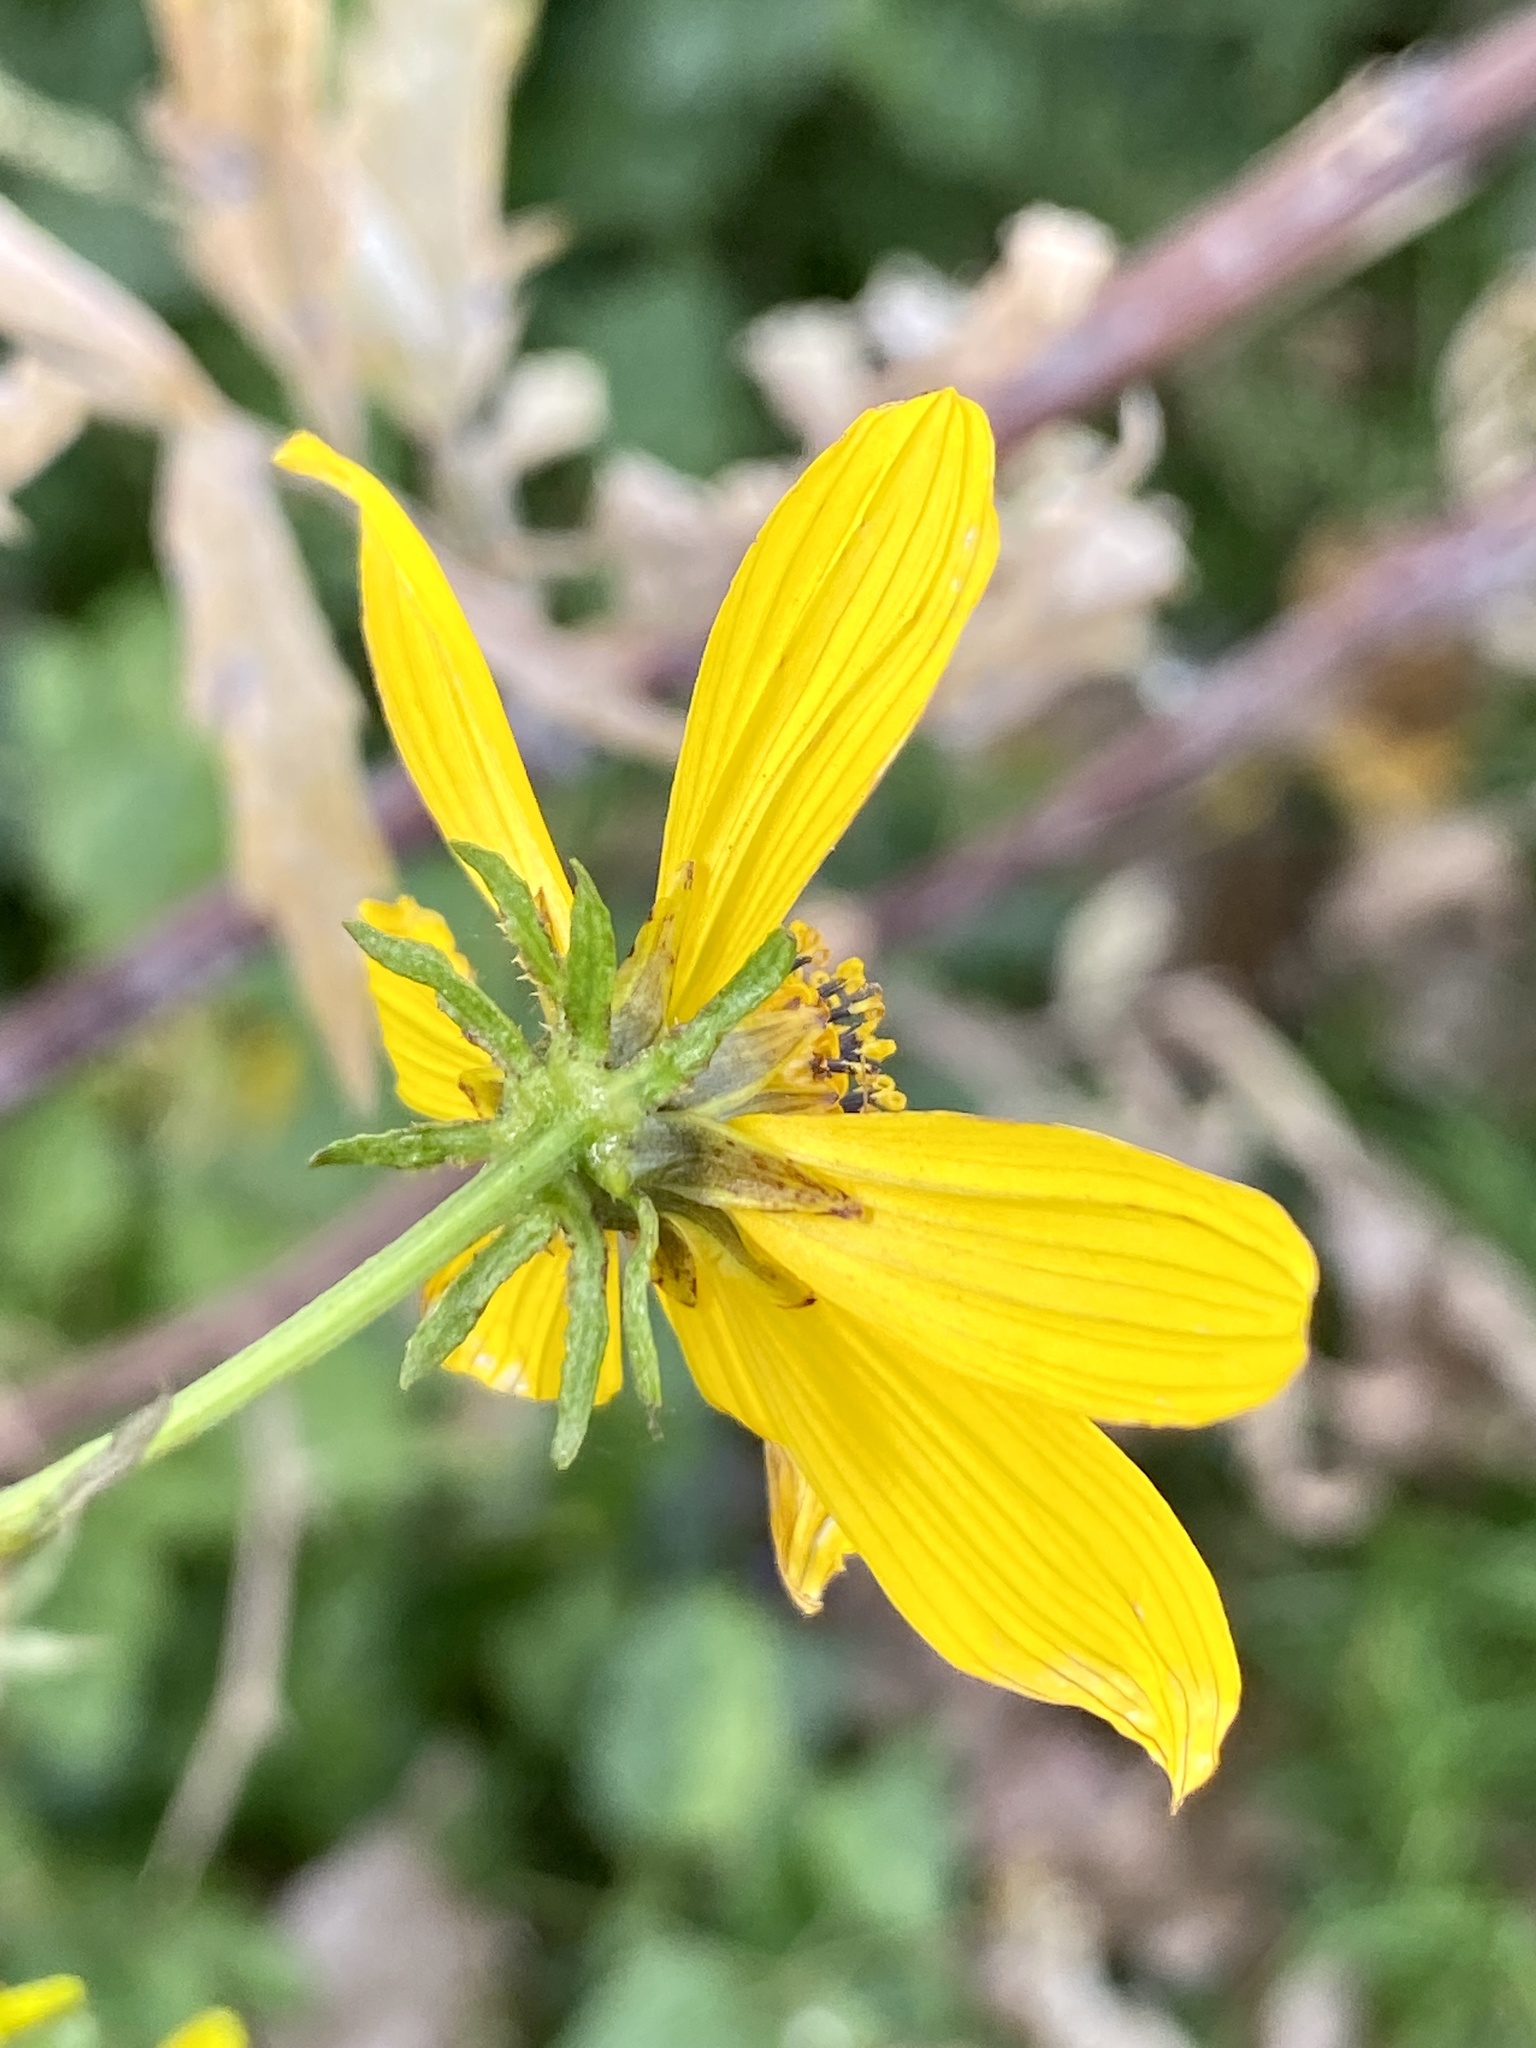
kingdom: Plantae
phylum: Tracheophyta
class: Magnoliopsida
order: Asterales
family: Asteraceae
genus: Bidens
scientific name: Bidens polylepis
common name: Awnless beggarticks
